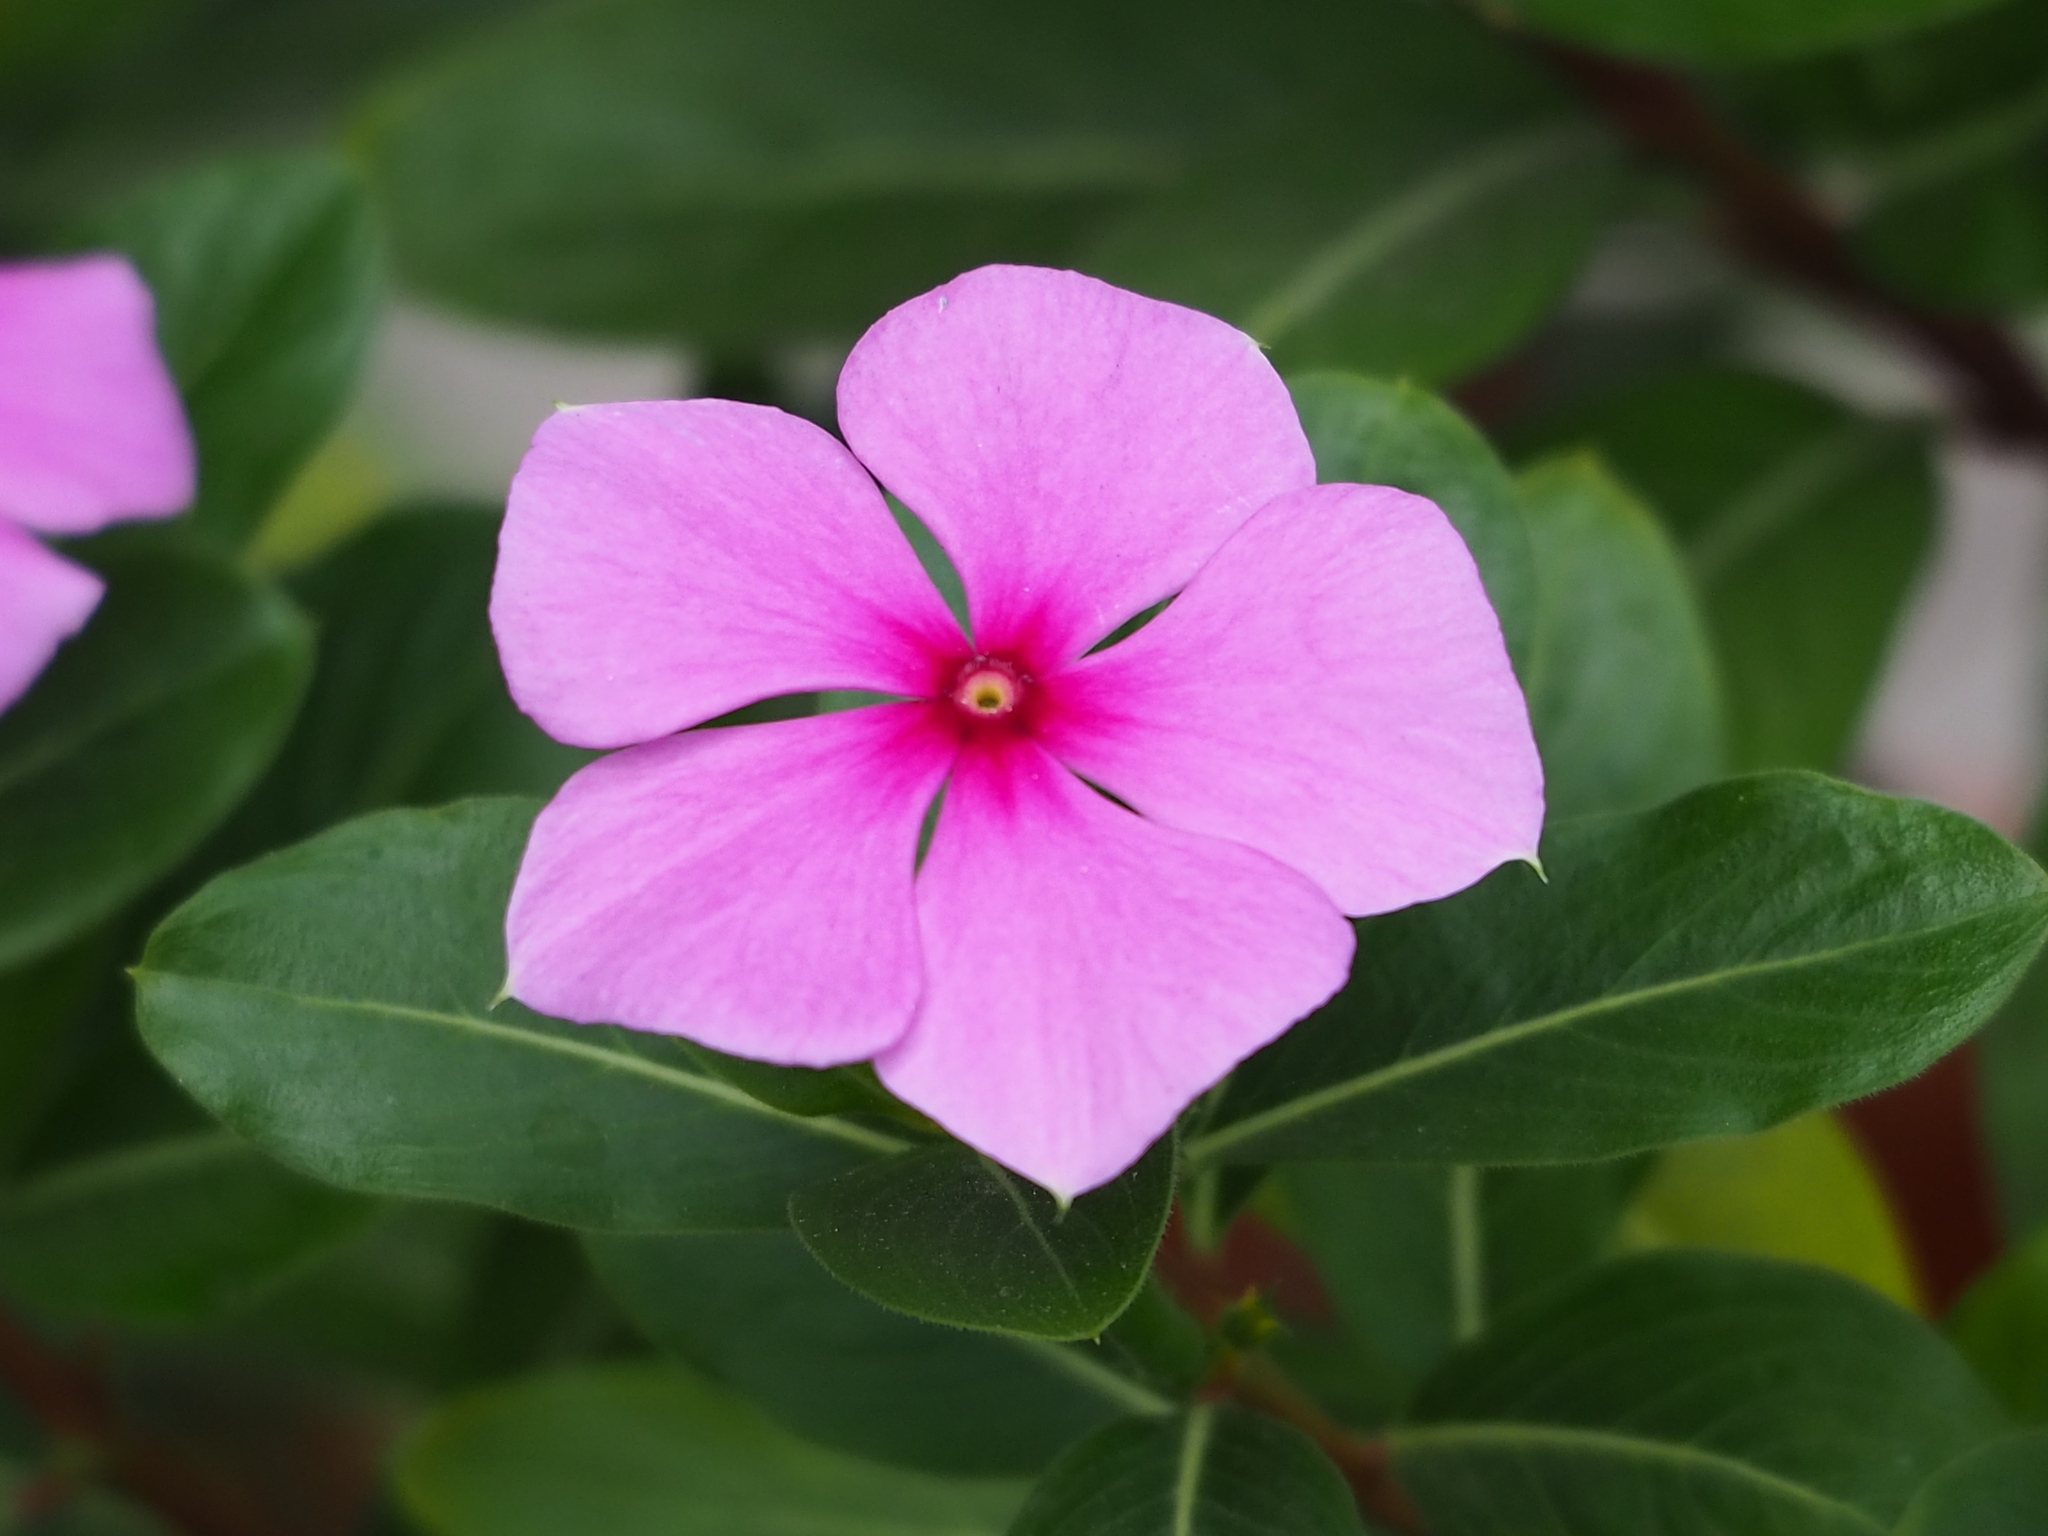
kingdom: Plantae
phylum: Tracheophyta
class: Magnoliopsida
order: Gentianales
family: Apocynaceae
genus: Catharanthus
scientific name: Catharanthus roseus
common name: Madagascar periwinkle
